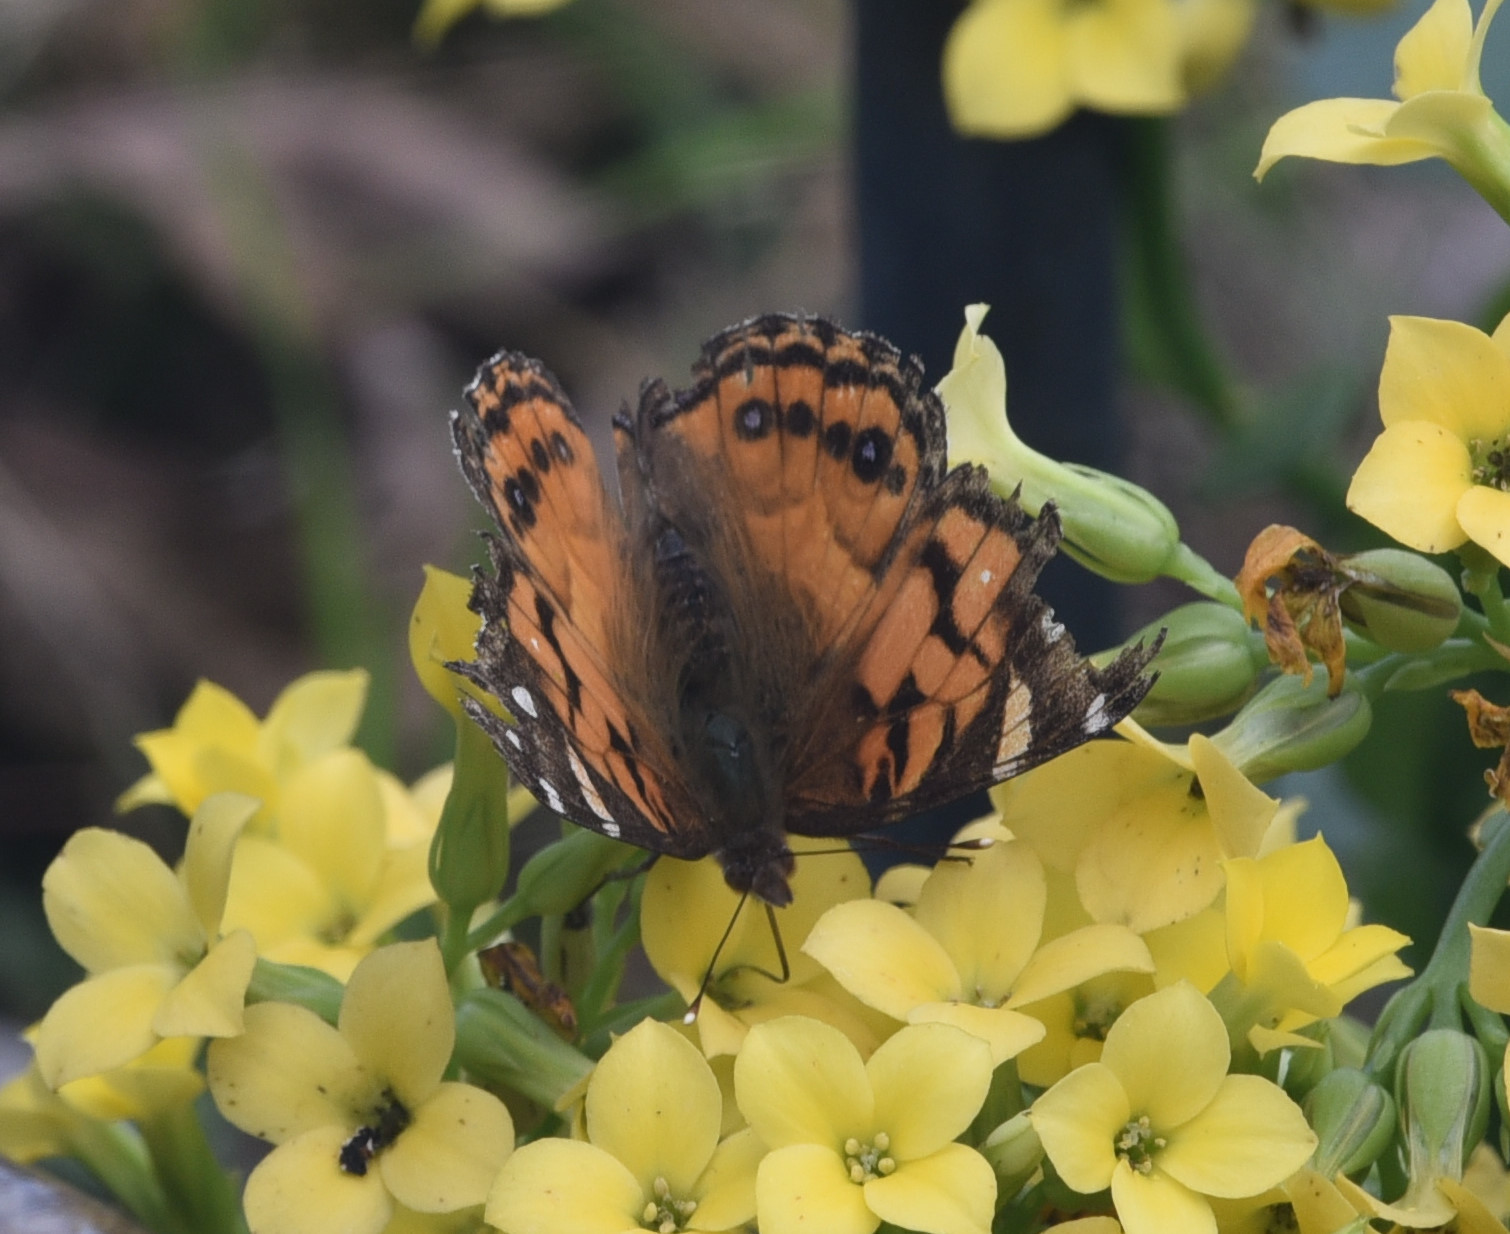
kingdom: Animalia
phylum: Arthropoda
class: Insecta
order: Lepidoptera
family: Nymphalidae
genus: Vanessa
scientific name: Vanessa virginiensis
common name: American lady
